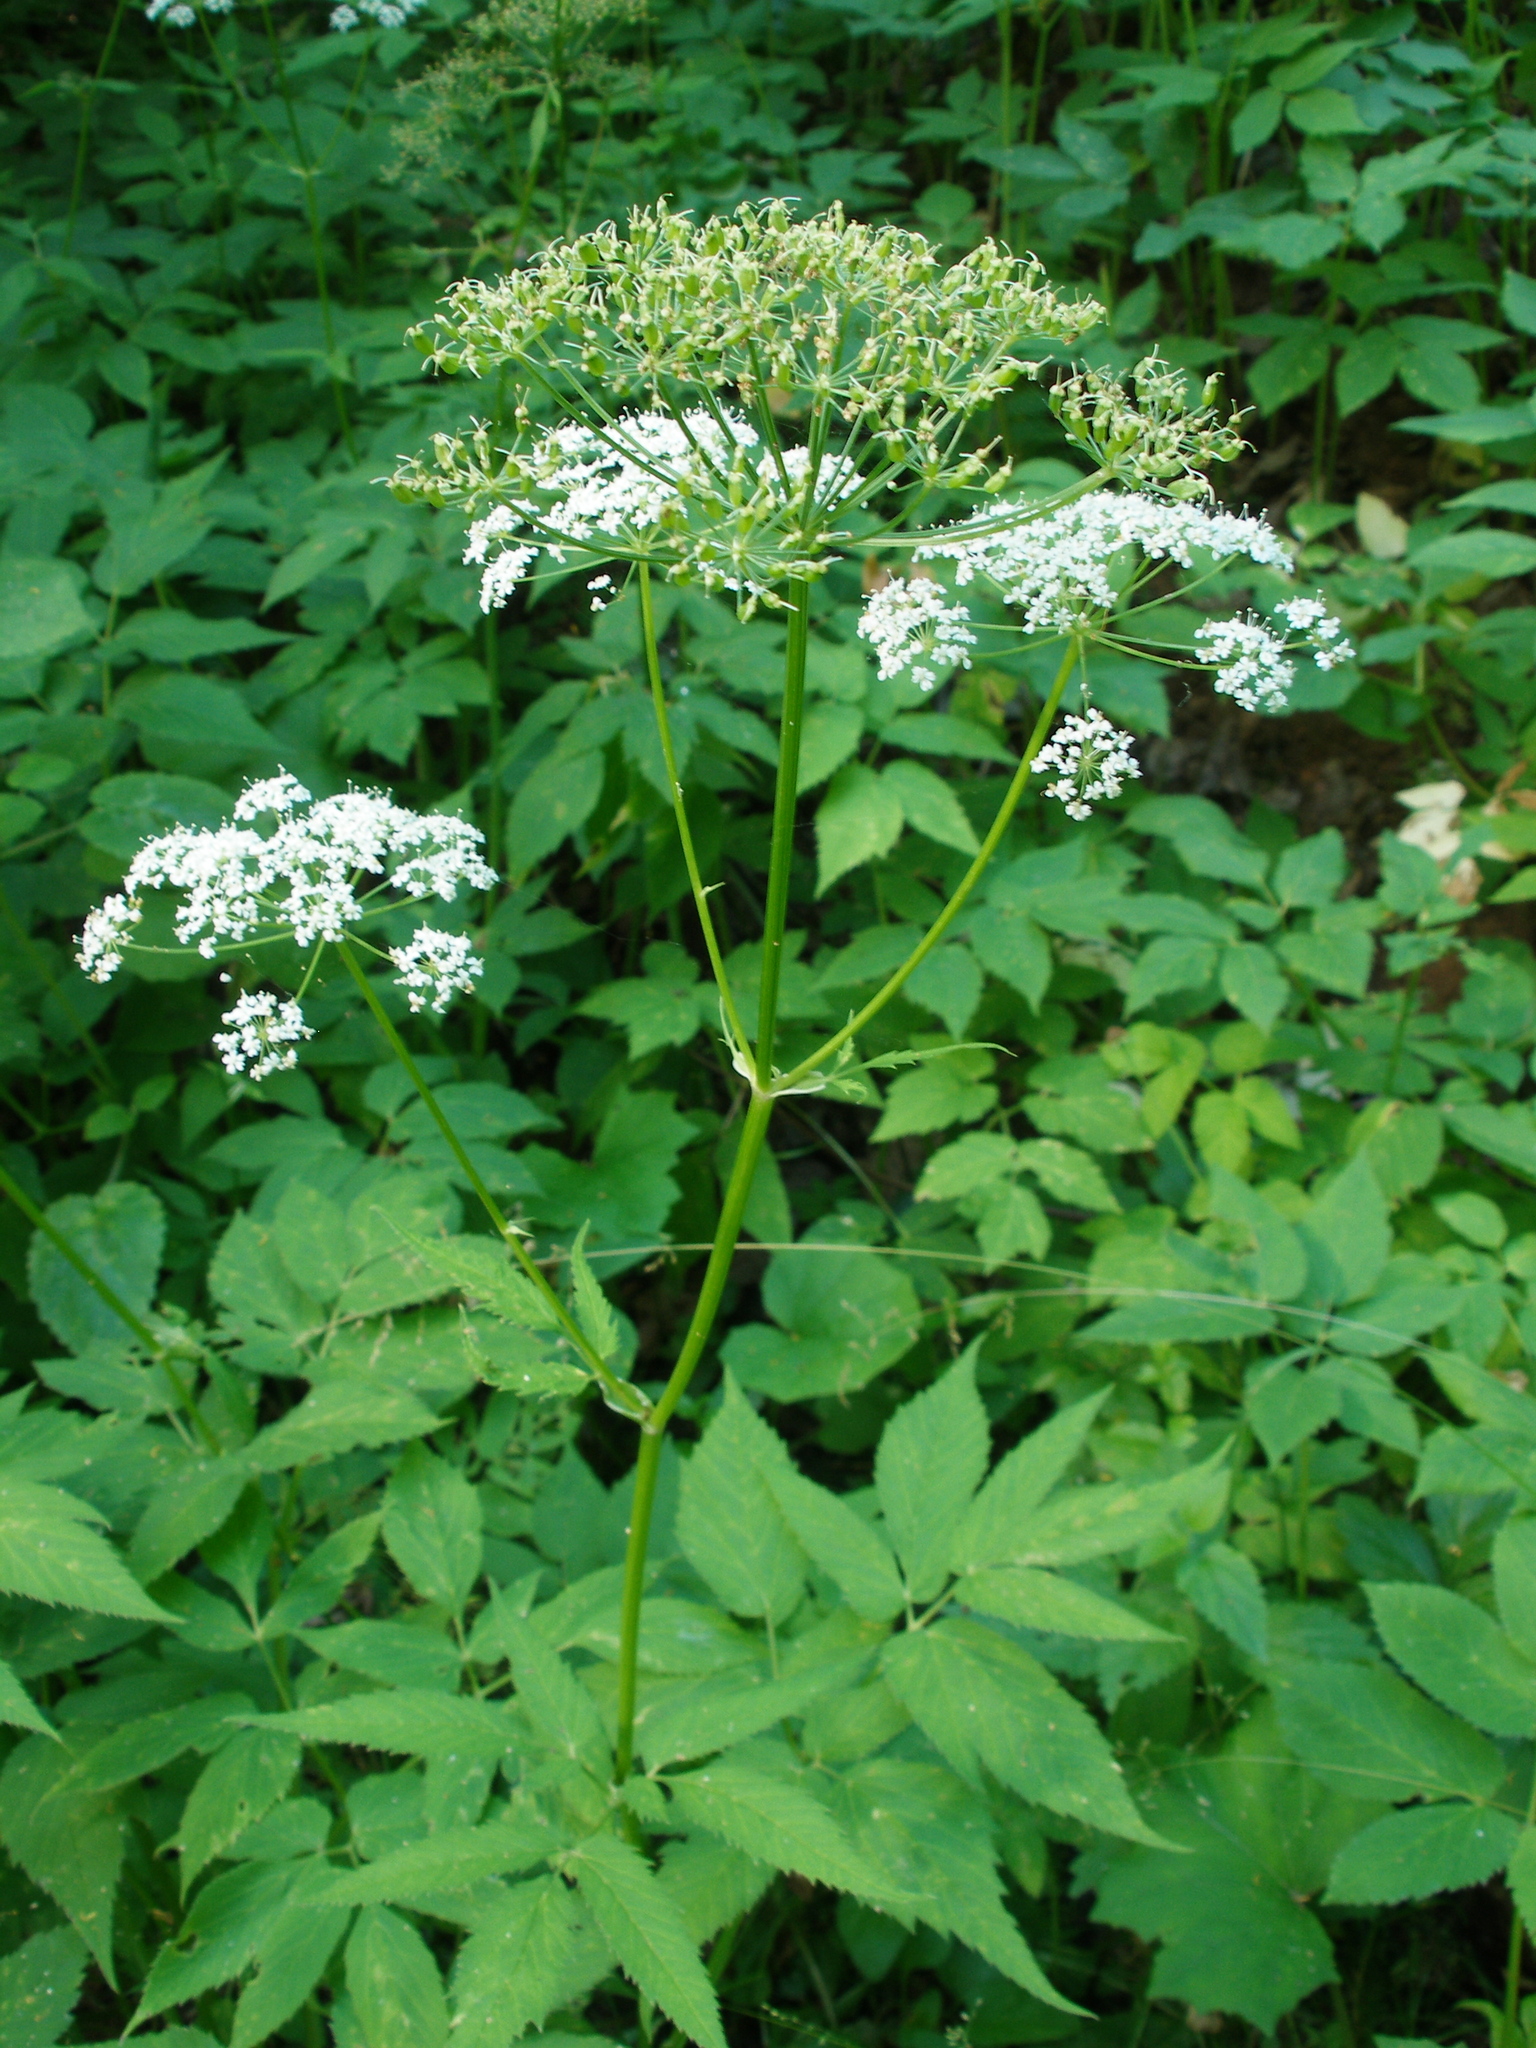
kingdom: Plantae
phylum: Tracheophyta
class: Magnoliopsida
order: Apiales
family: Apiaceae
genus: Aegopodium
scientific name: Aegopodium podagraria
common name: Ground-elder
